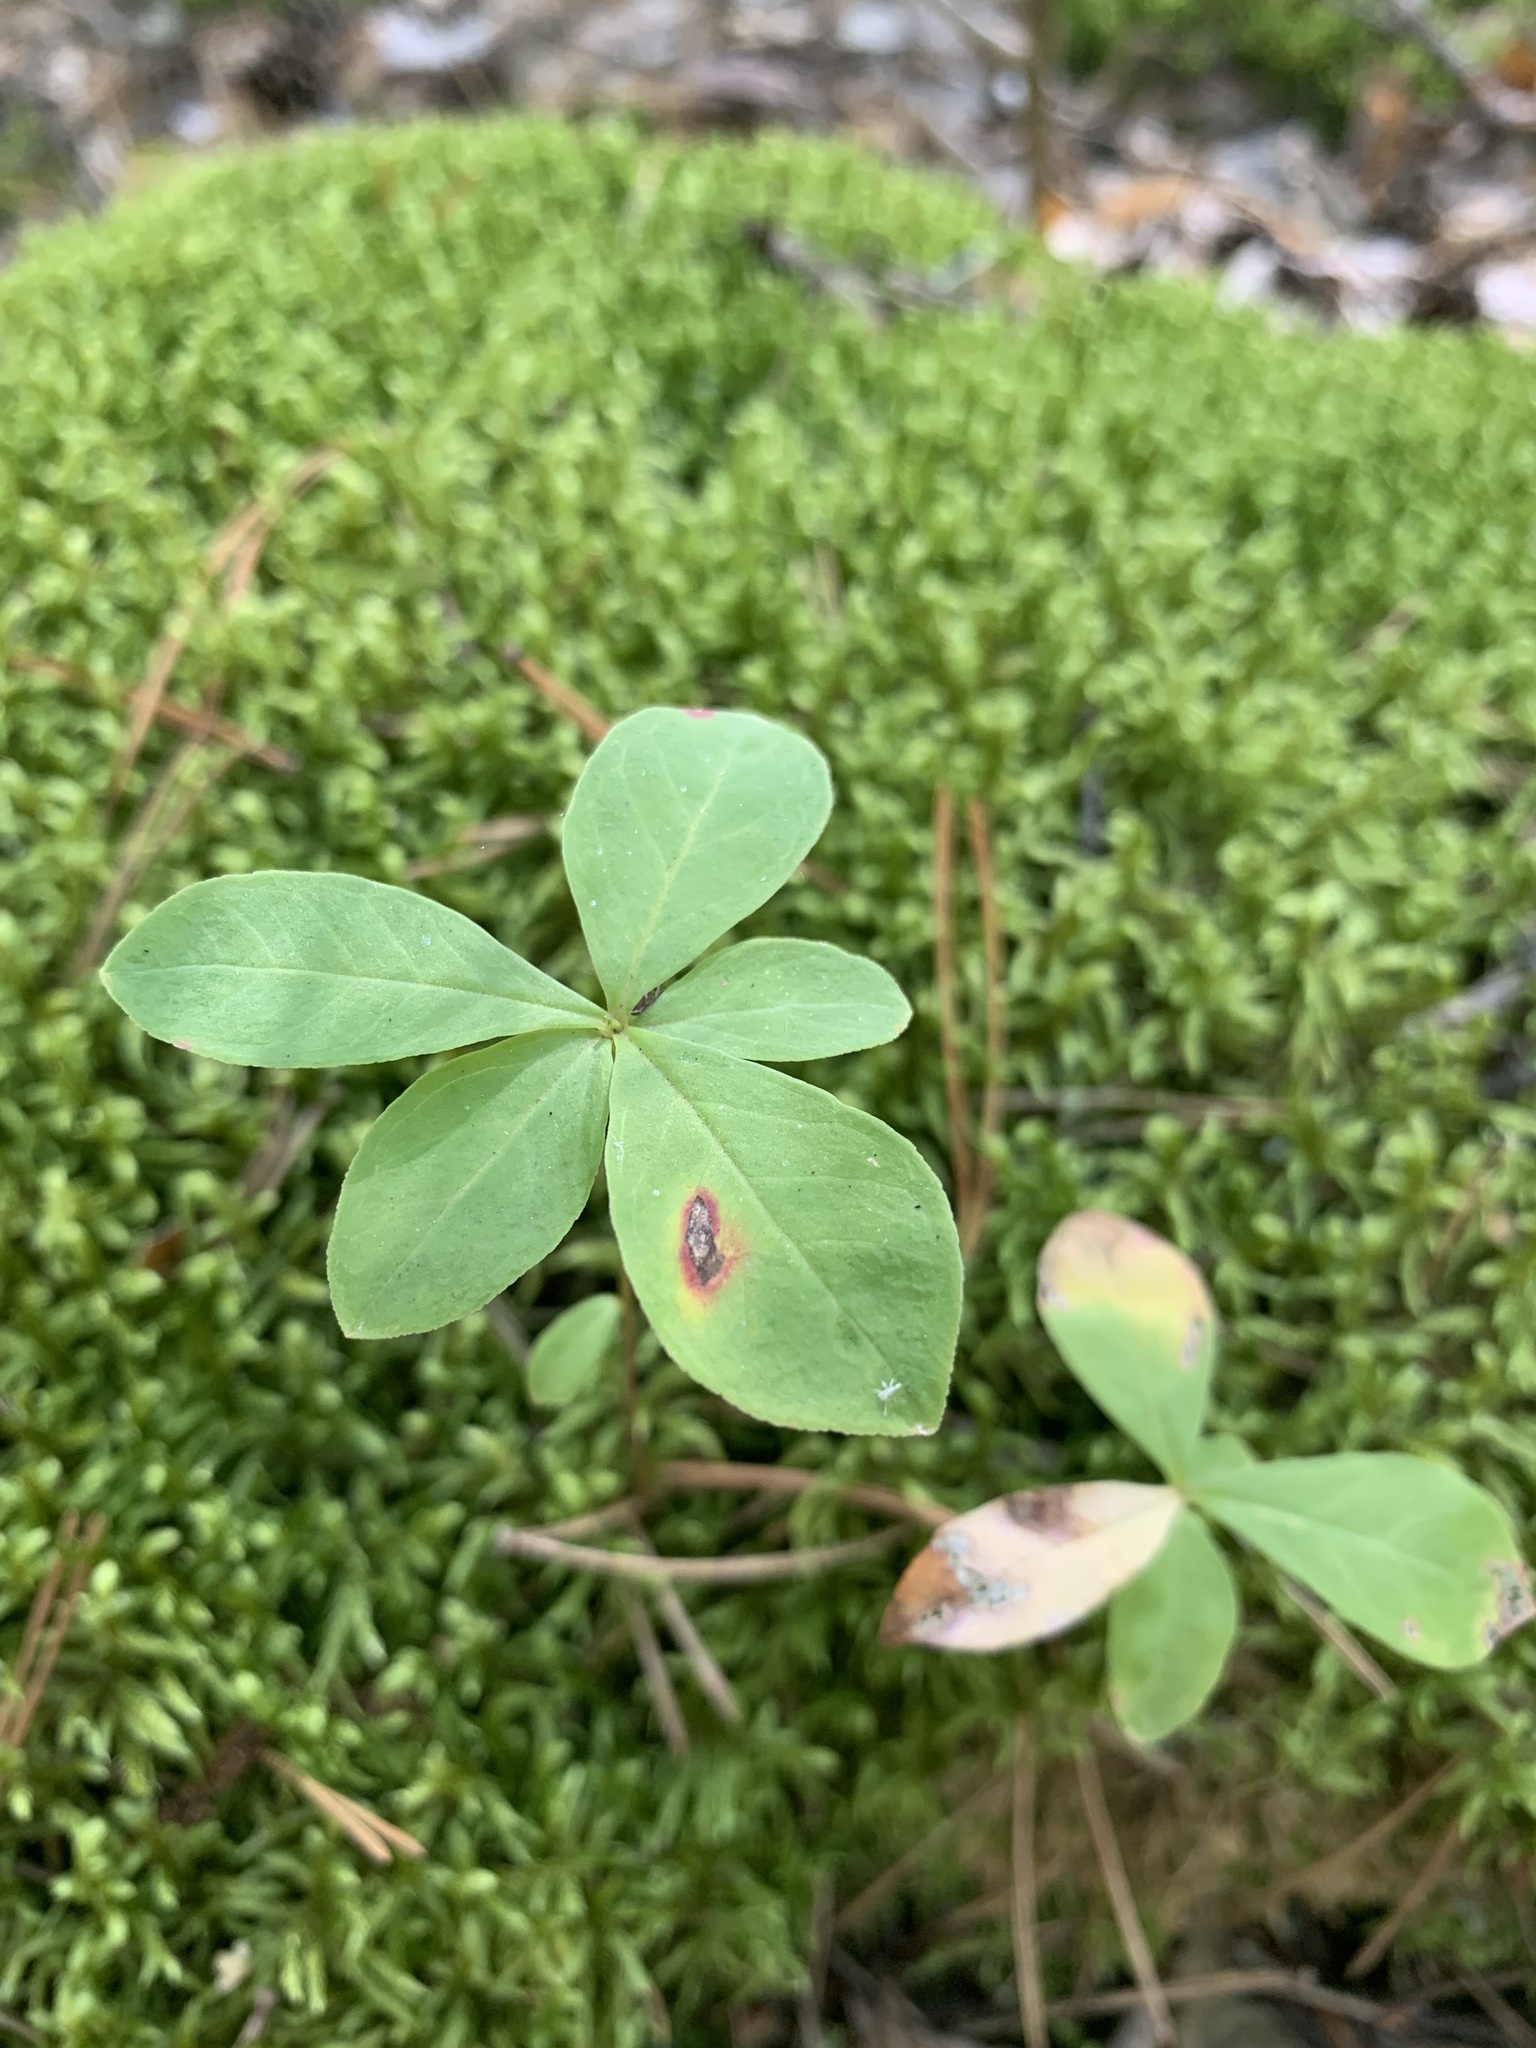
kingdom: Plantae
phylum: Tracheophyta
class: Magnoliopsida
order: Ericales
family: Primulaceae
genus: Lysimachia
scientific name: Lysimachia europaea
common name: Arctic starflower
